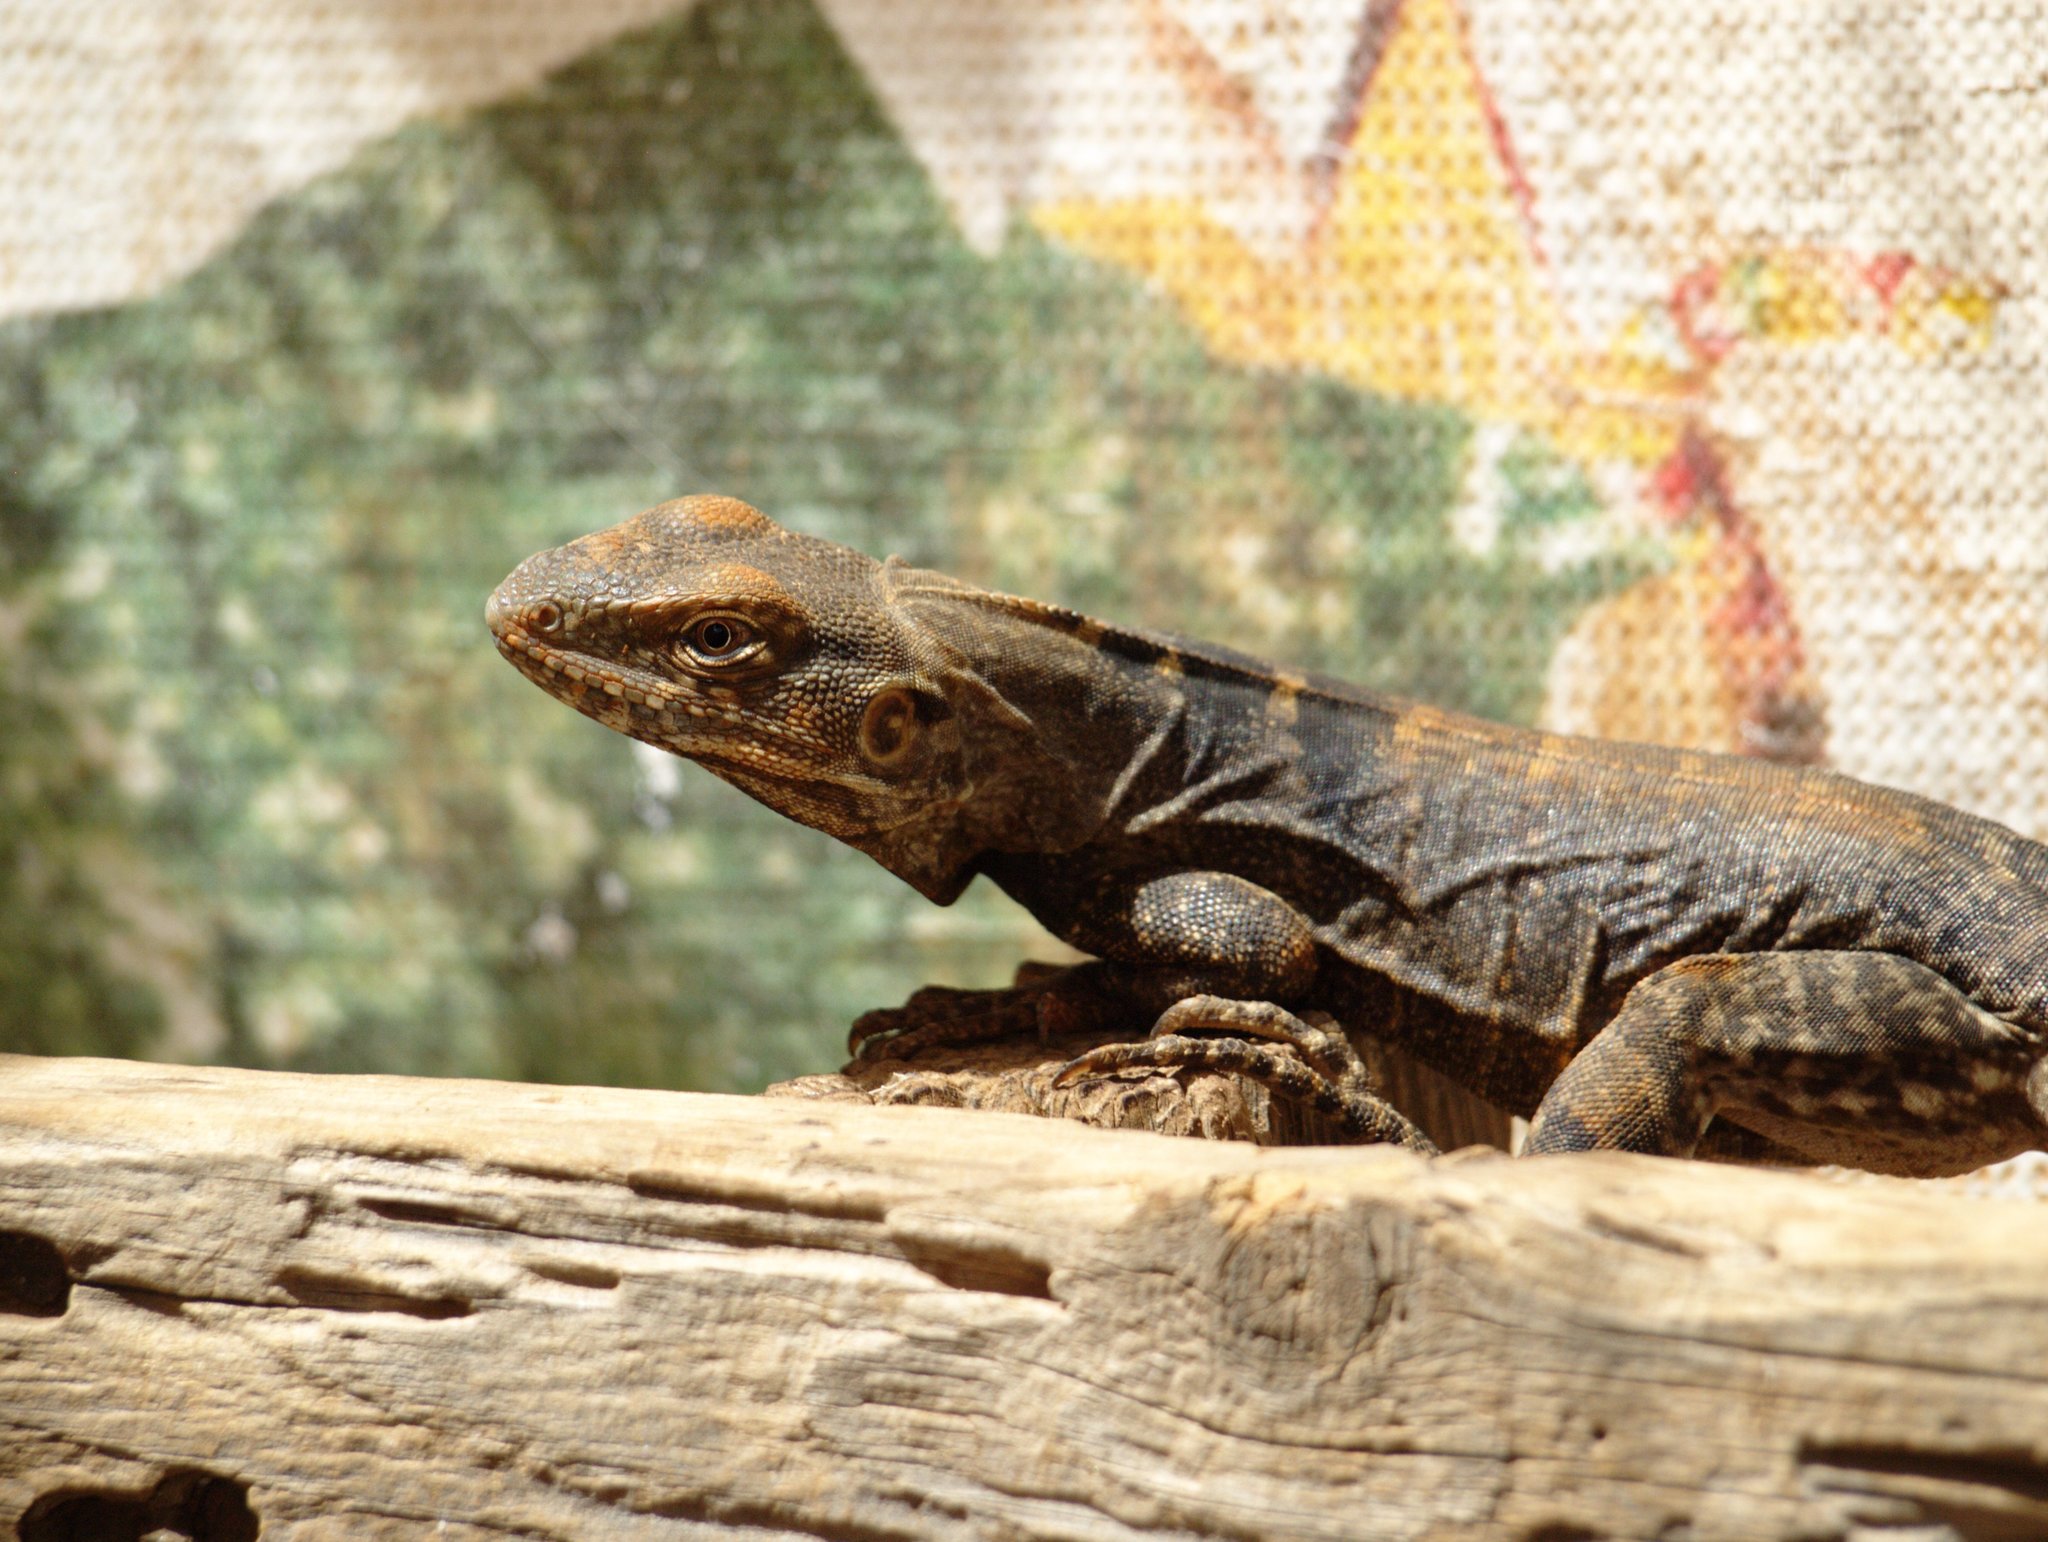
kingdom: Animalia
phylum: Chordata
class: Squamata
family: Iguanidae
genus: Ctenosaura
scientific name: Ctenosaura macrolopha
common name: Cape spinytail iguana
